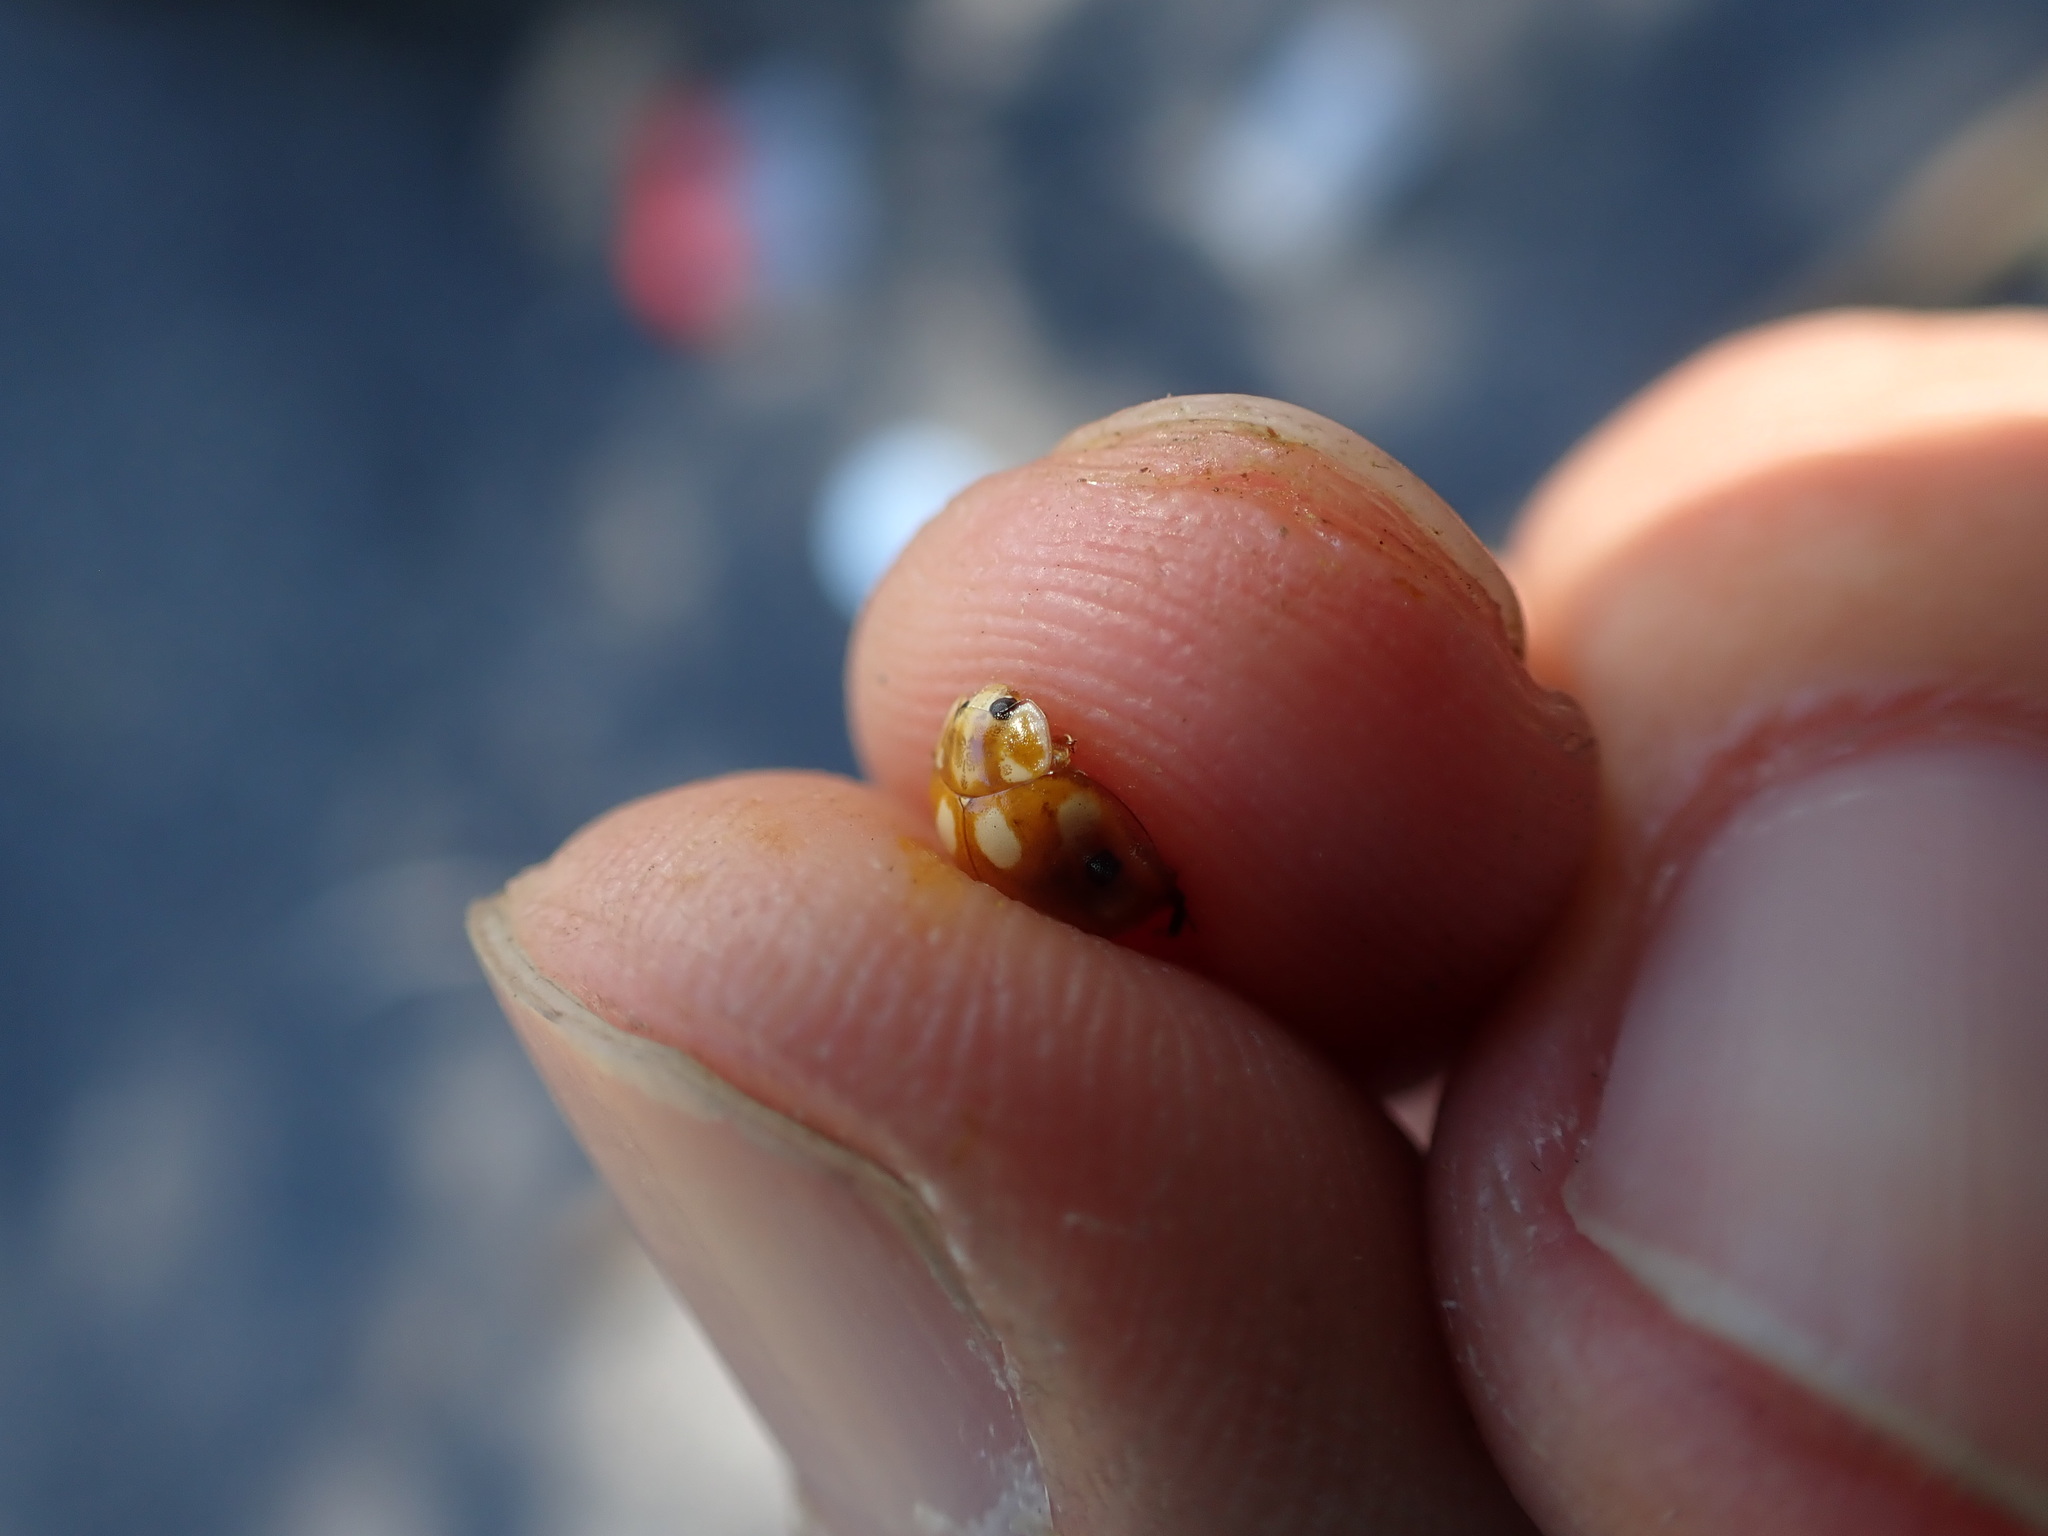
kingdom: Animalia
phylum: Arthropoda
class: Insecta
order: Coleoptera
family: Coccinellidae
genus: Calvia
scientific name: Calvia decemguttata
